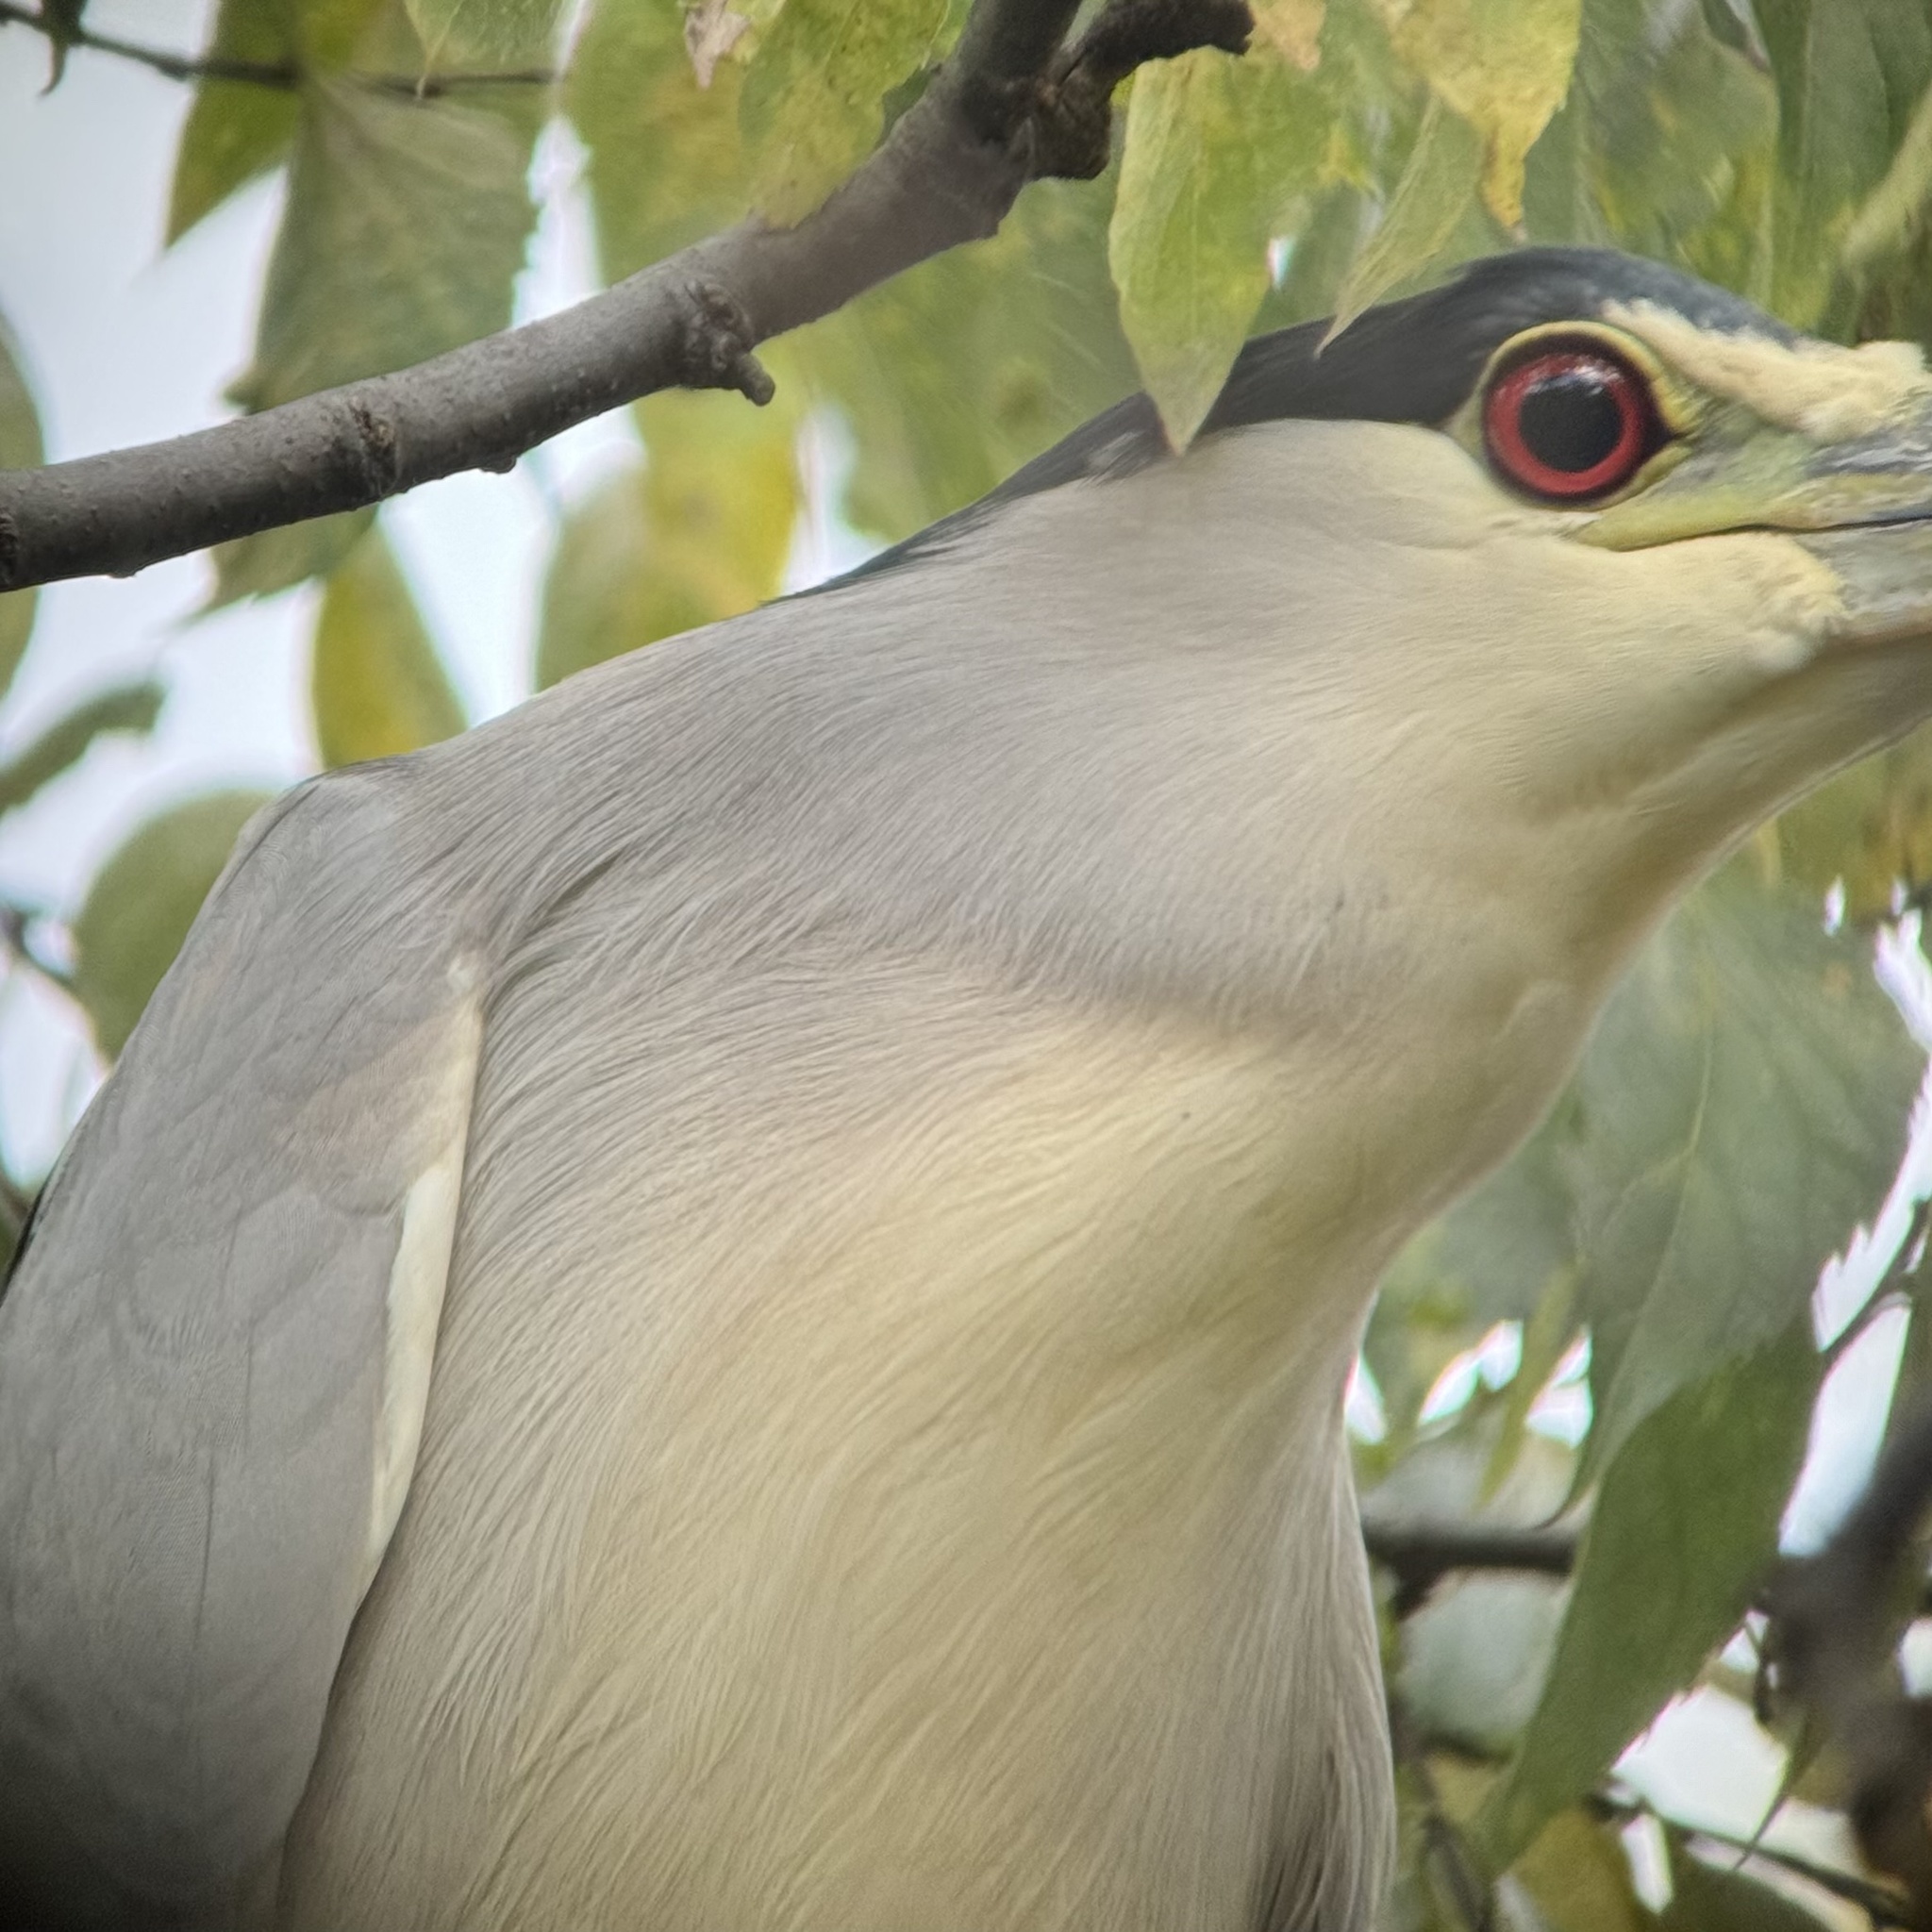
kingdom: Animalia
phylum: Chordata
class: Aves
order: Pelecaniformes
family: Ardeidae
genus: Nycticorax
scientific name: Nycticorax nycticorax
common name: Black-crowned night heron
